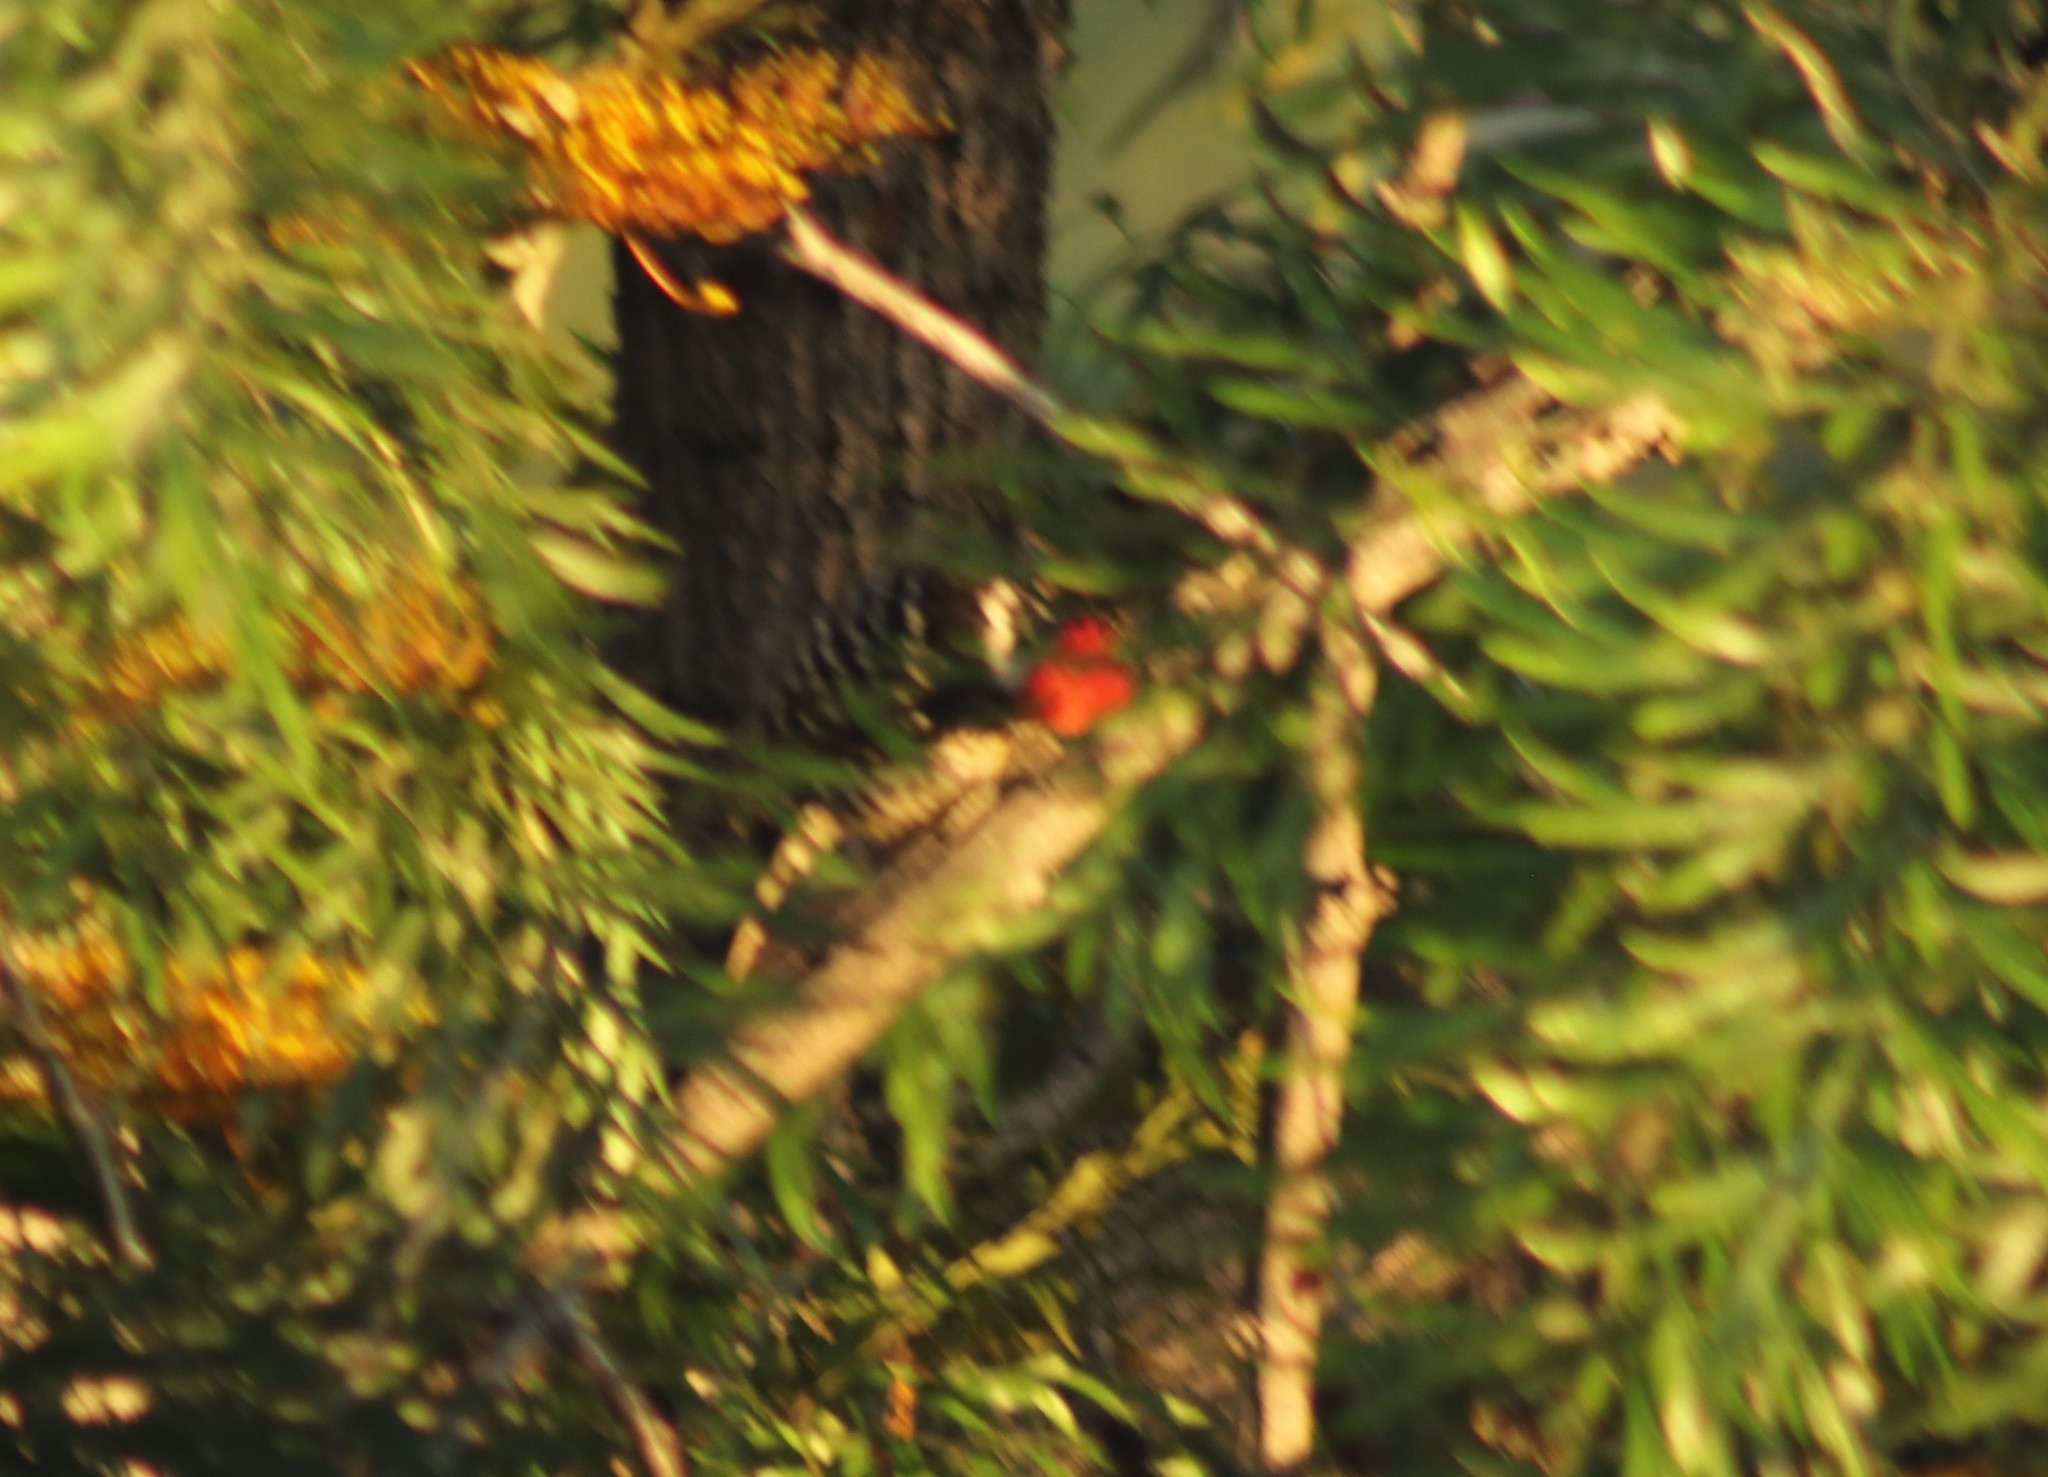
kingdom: Animalia
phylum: Chordata
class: Aves
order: Piciformes
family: Picidae
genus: Dryobates
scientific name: Dryobates nuttallii
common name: Nuttall's woodpecker
